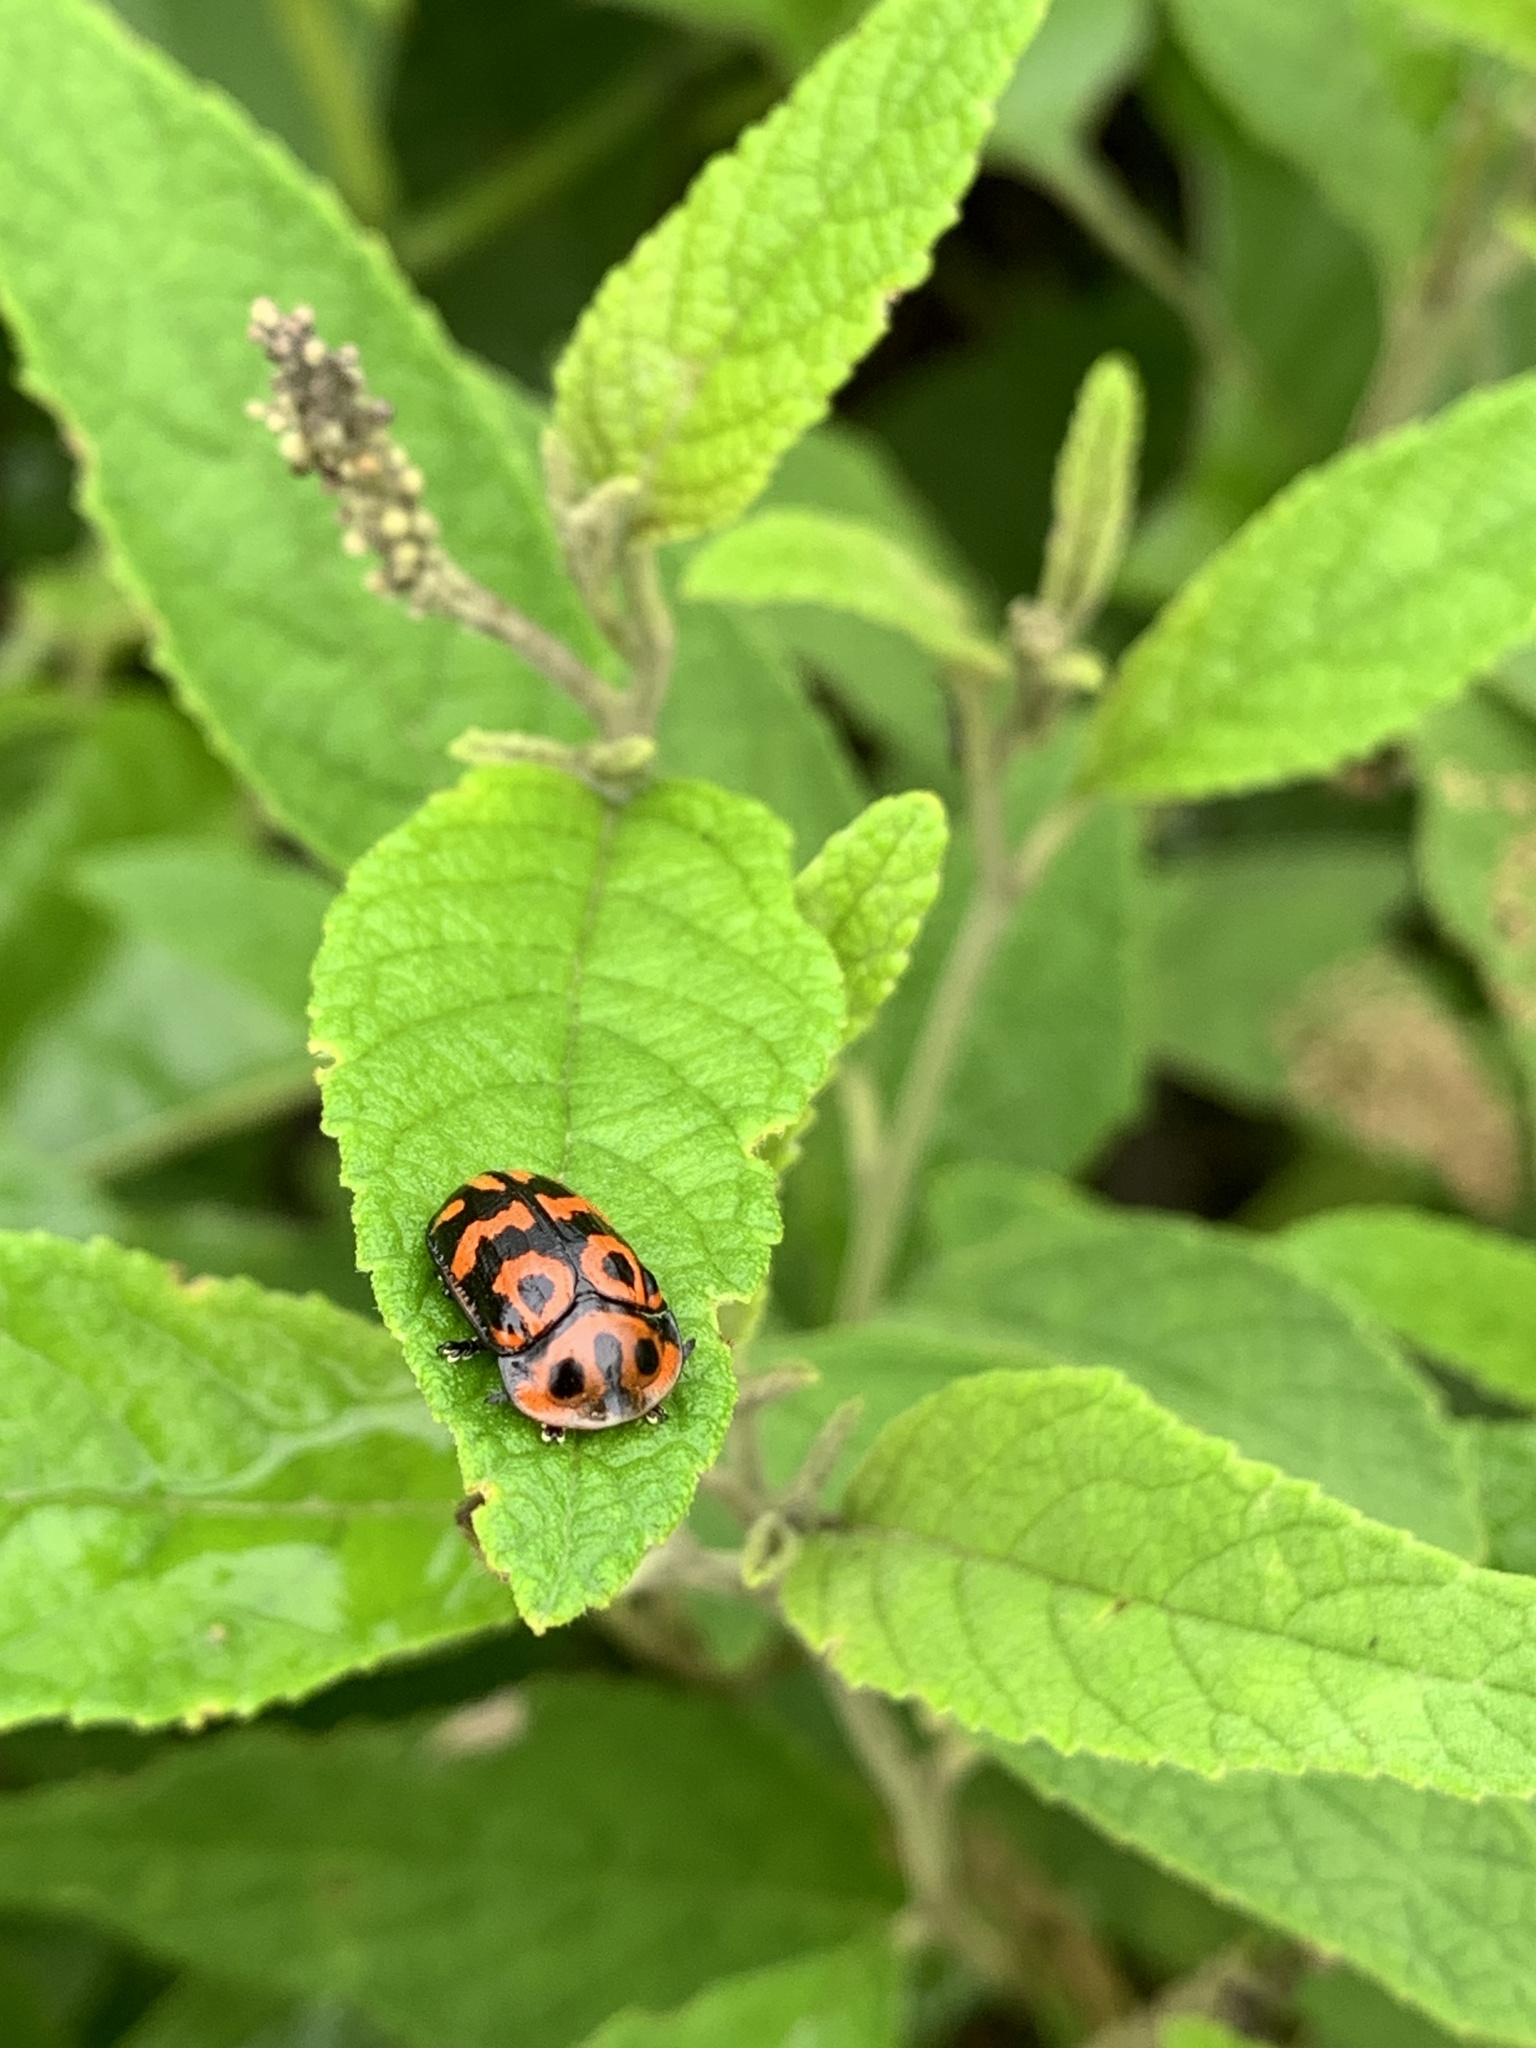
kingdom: Animalia
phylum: Arthropoda
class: Insecta
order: Coleoptera
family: Chrysomelidae
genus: Eurypedus
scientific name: Eurypedus peltoides
